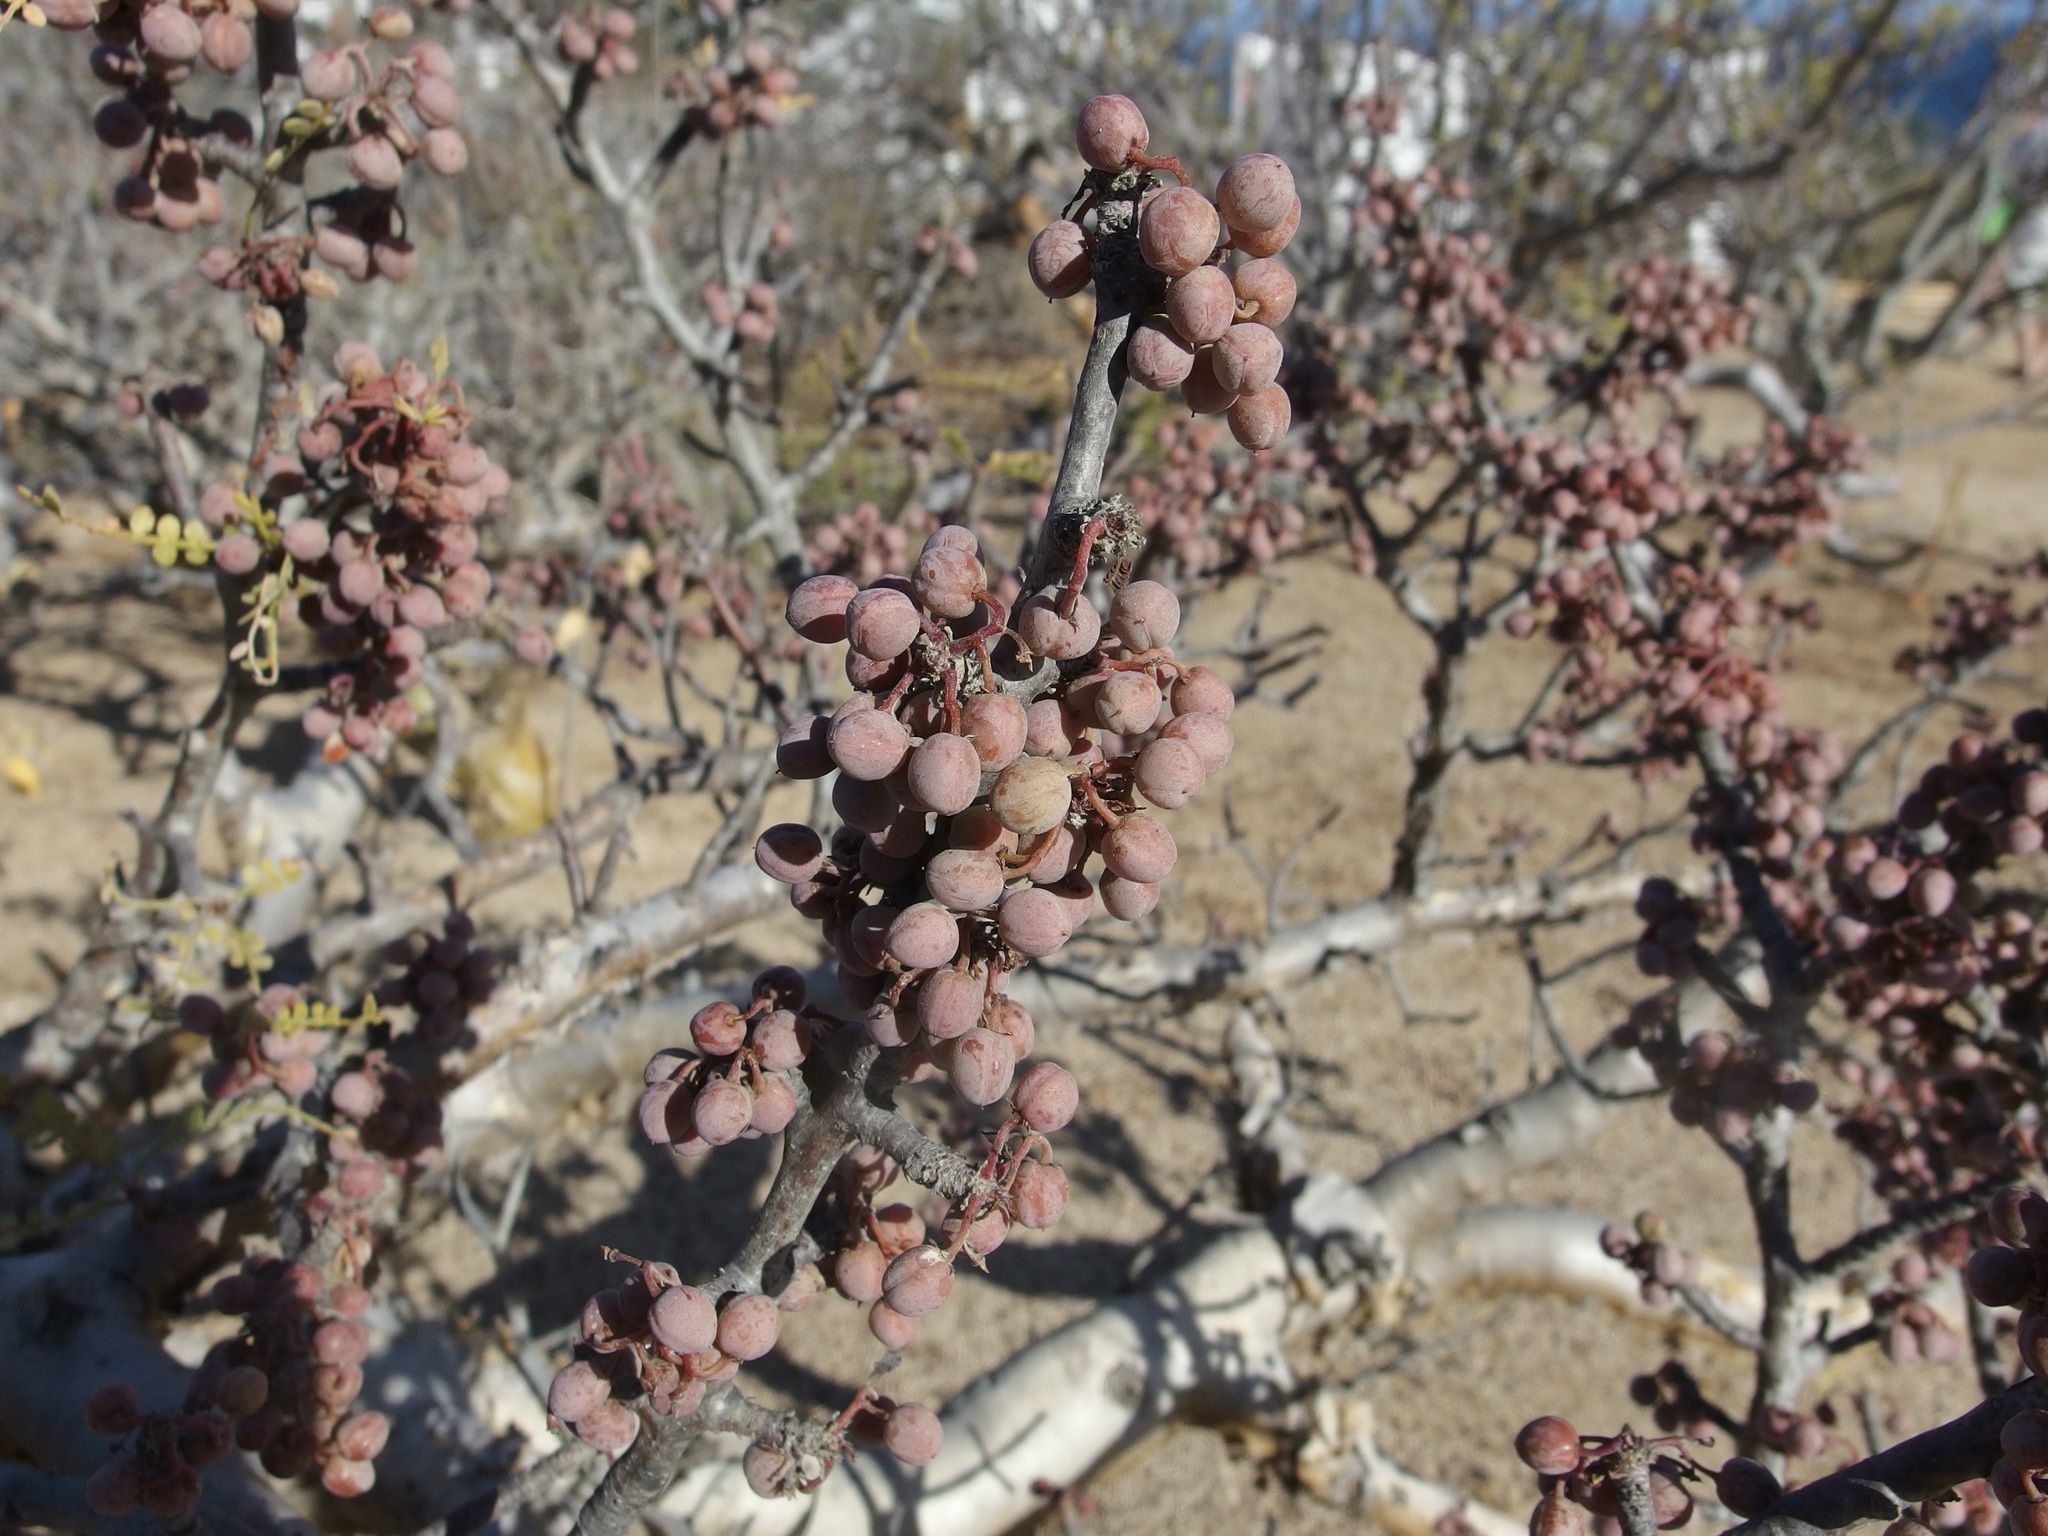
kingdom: Plantae
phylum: Tracheophyta
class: Magnoliopsida
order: Sapindales
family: Burseraceae
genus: Bursera
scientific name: Bursera exequielii
